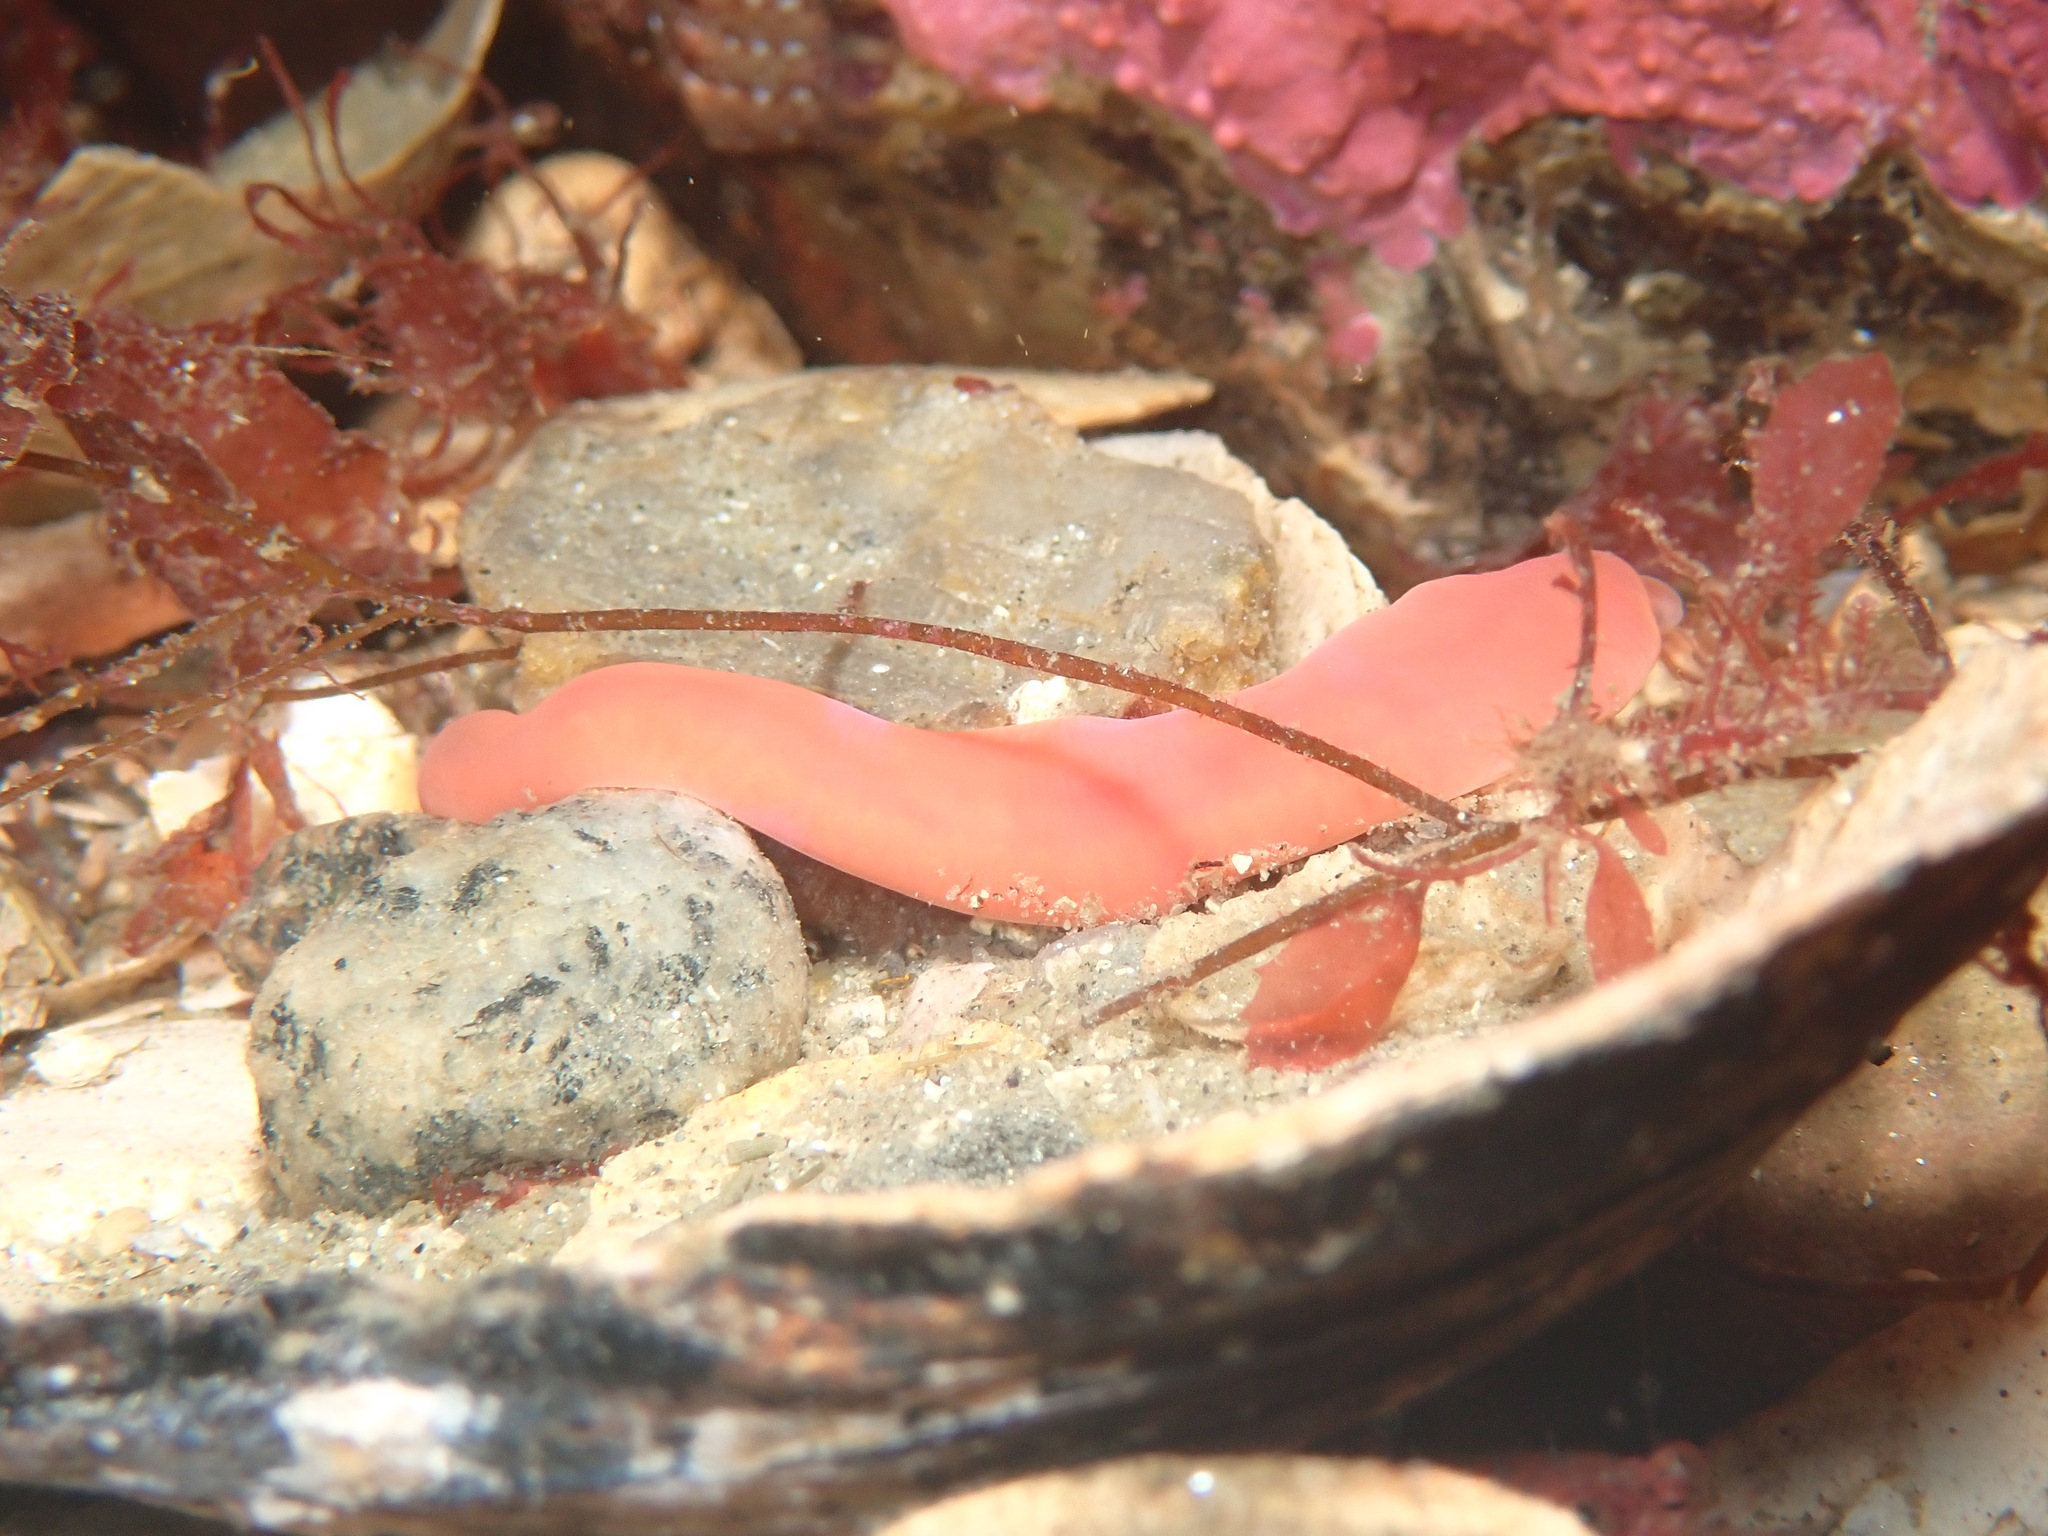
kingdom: Animalia
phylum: Nemertea
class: Hoplonemertea
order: Monostilifera
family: Cratenemertidae
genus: Nipponnemertes
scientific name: Nipponnemertes pulchra
